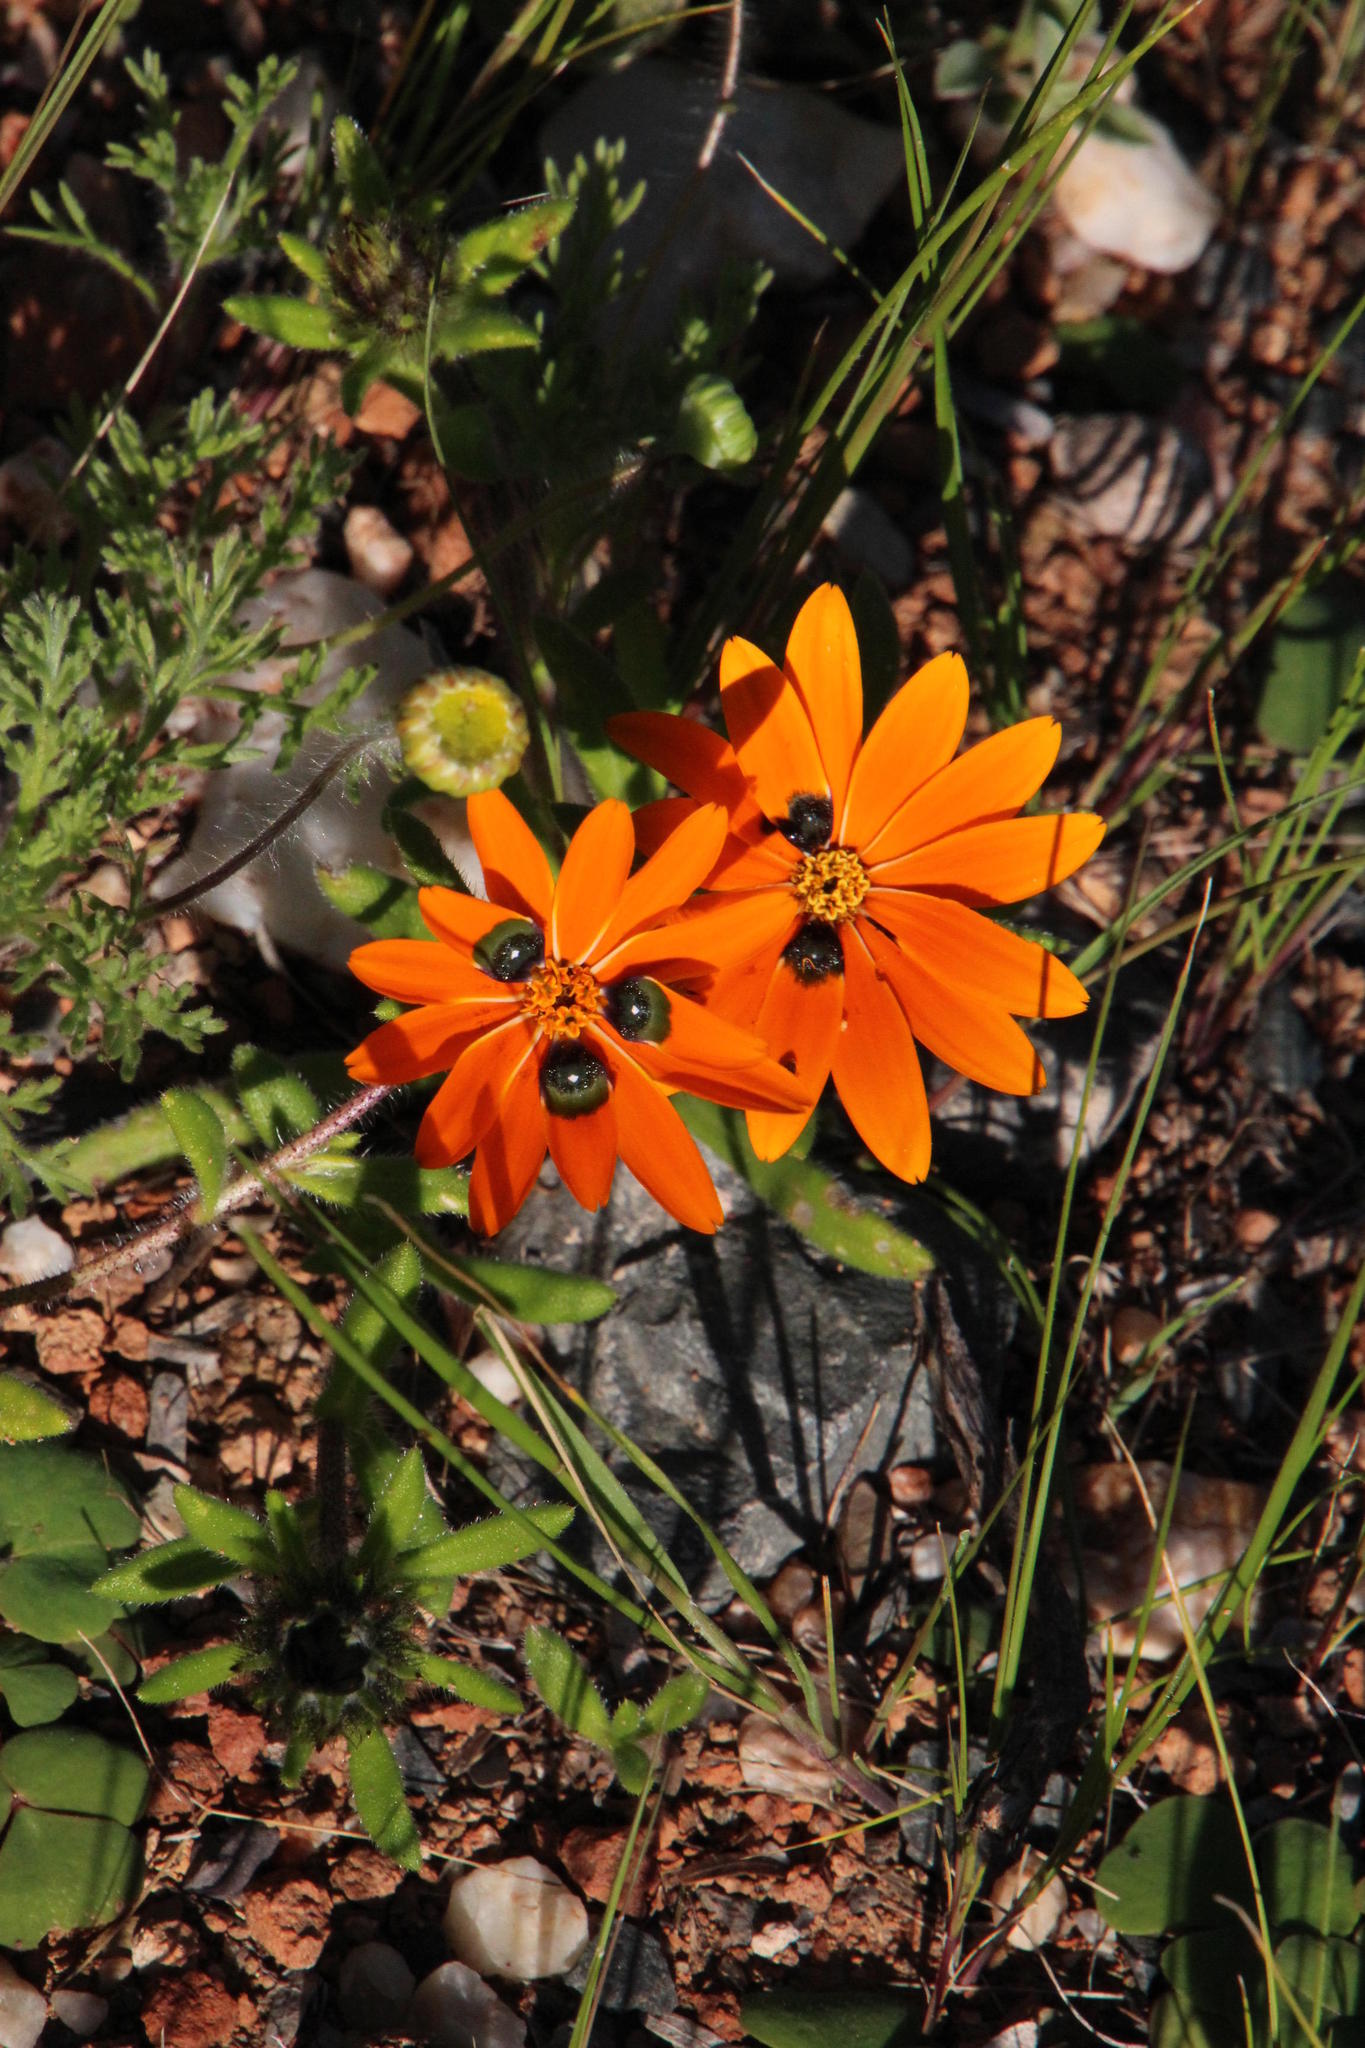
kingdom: Plantae
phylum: Tracheophyta
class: Magnoliopsida
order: Asterales
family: Asteraceae
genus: Gorteria
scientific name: Gorteria diffusa
